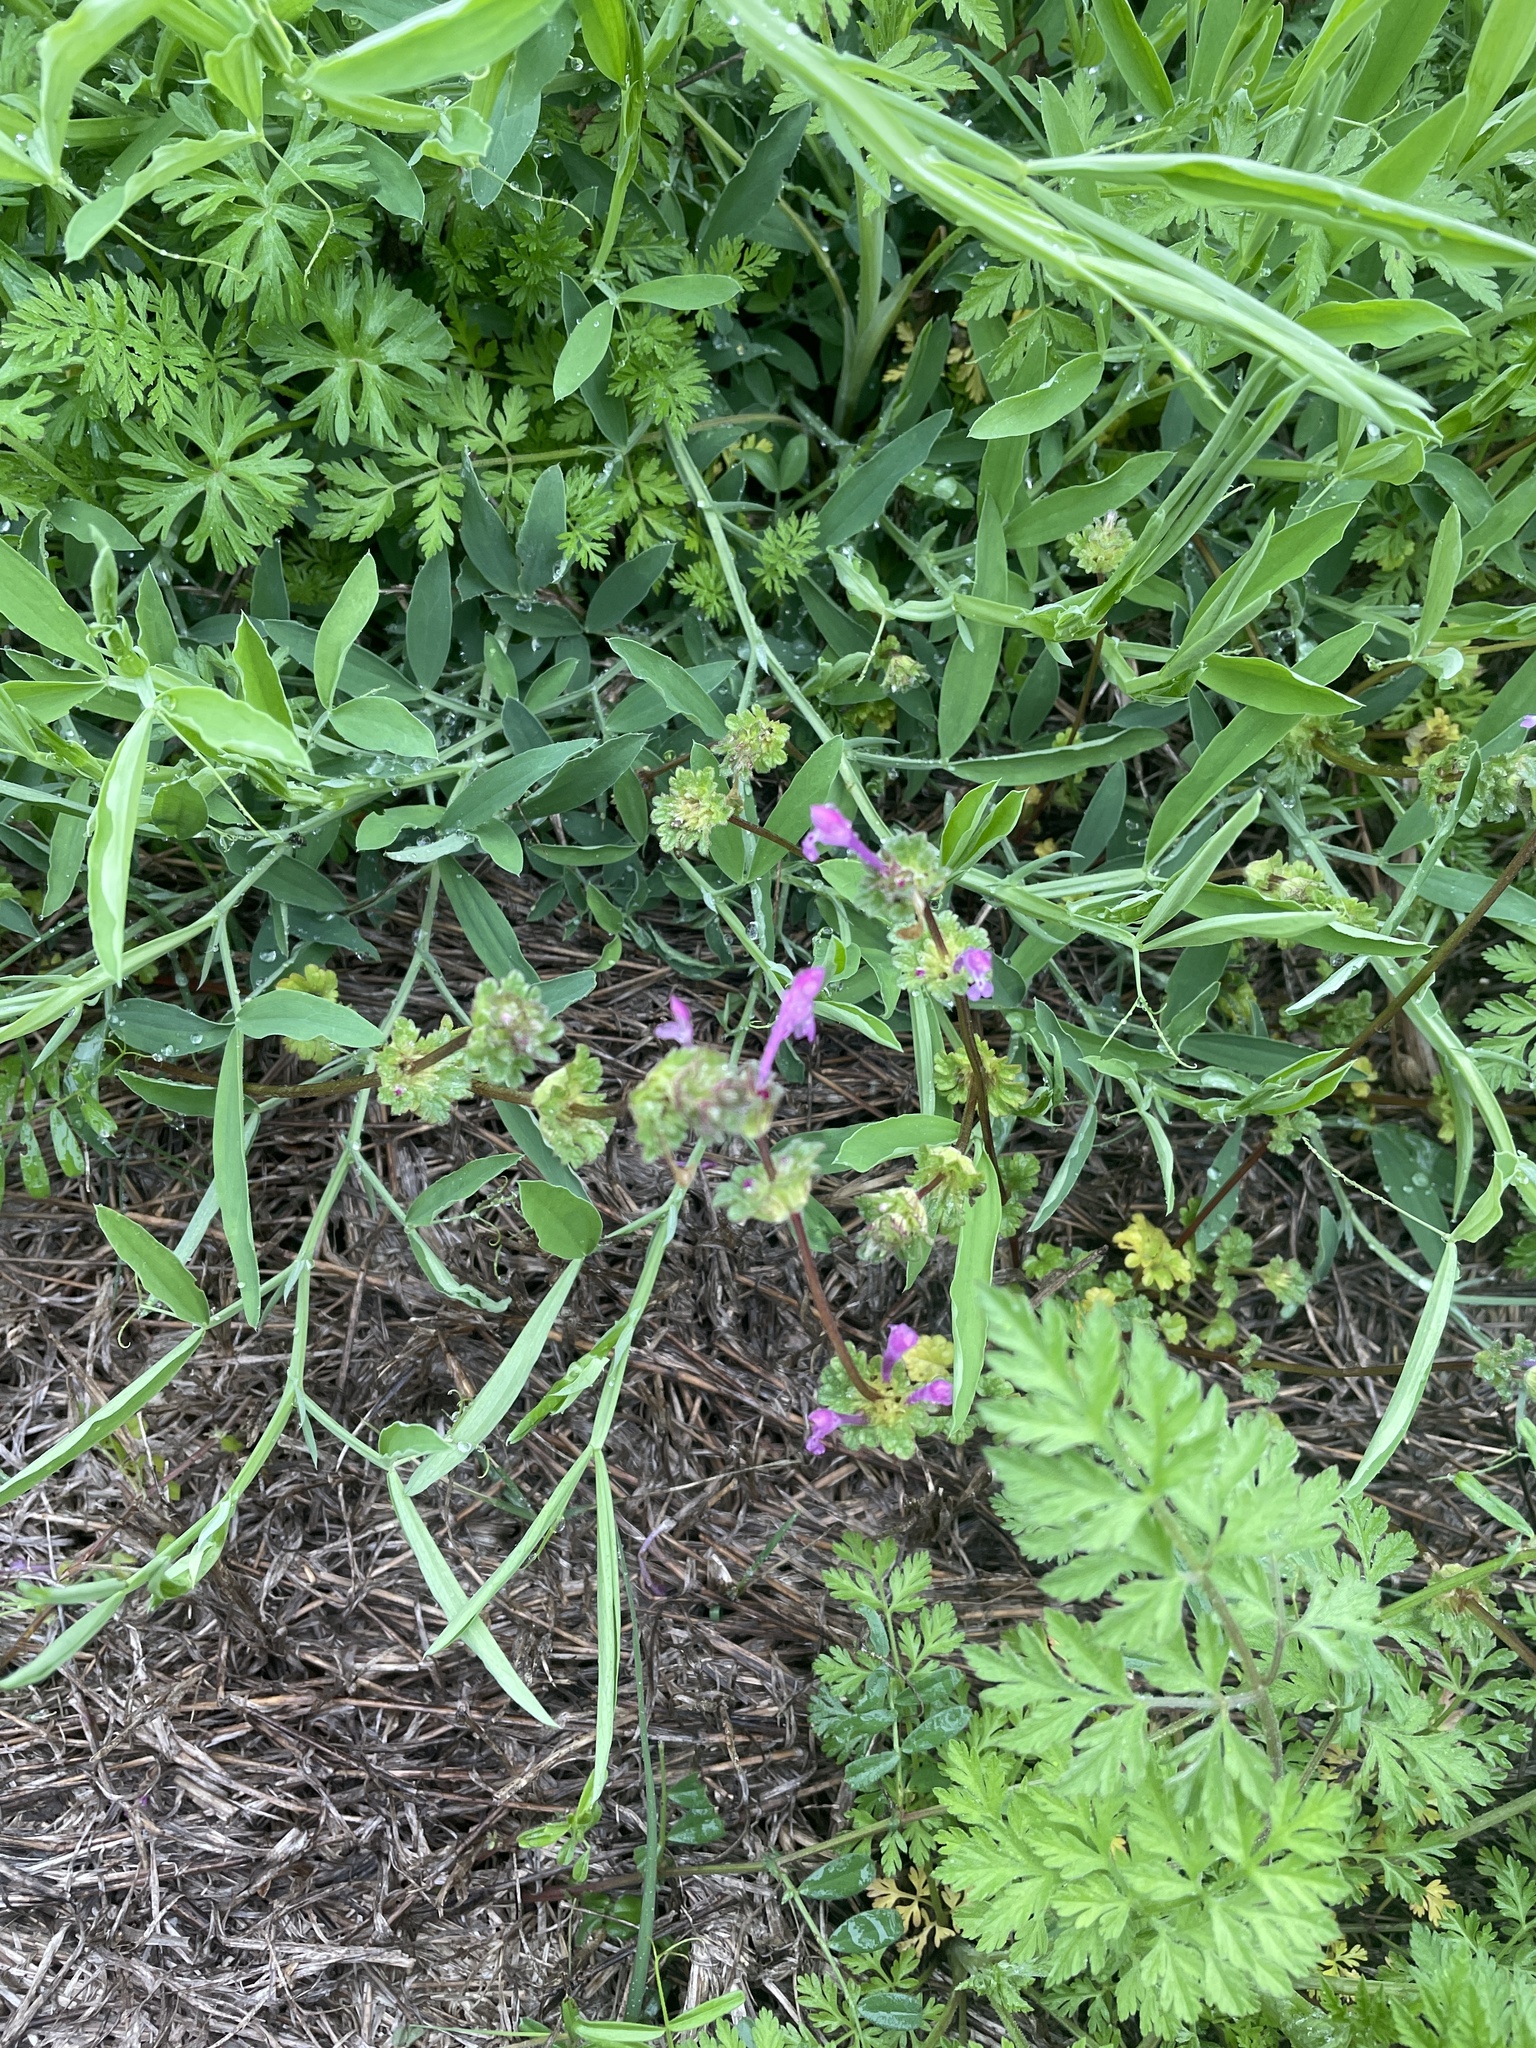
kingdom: Plantae
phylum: Tracheophyta
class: Magnoliopsida
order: Lamiales
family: Lamiaceae
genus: Lamium
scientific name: Lamium amplexicaule
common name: Henbit dead-nettle
